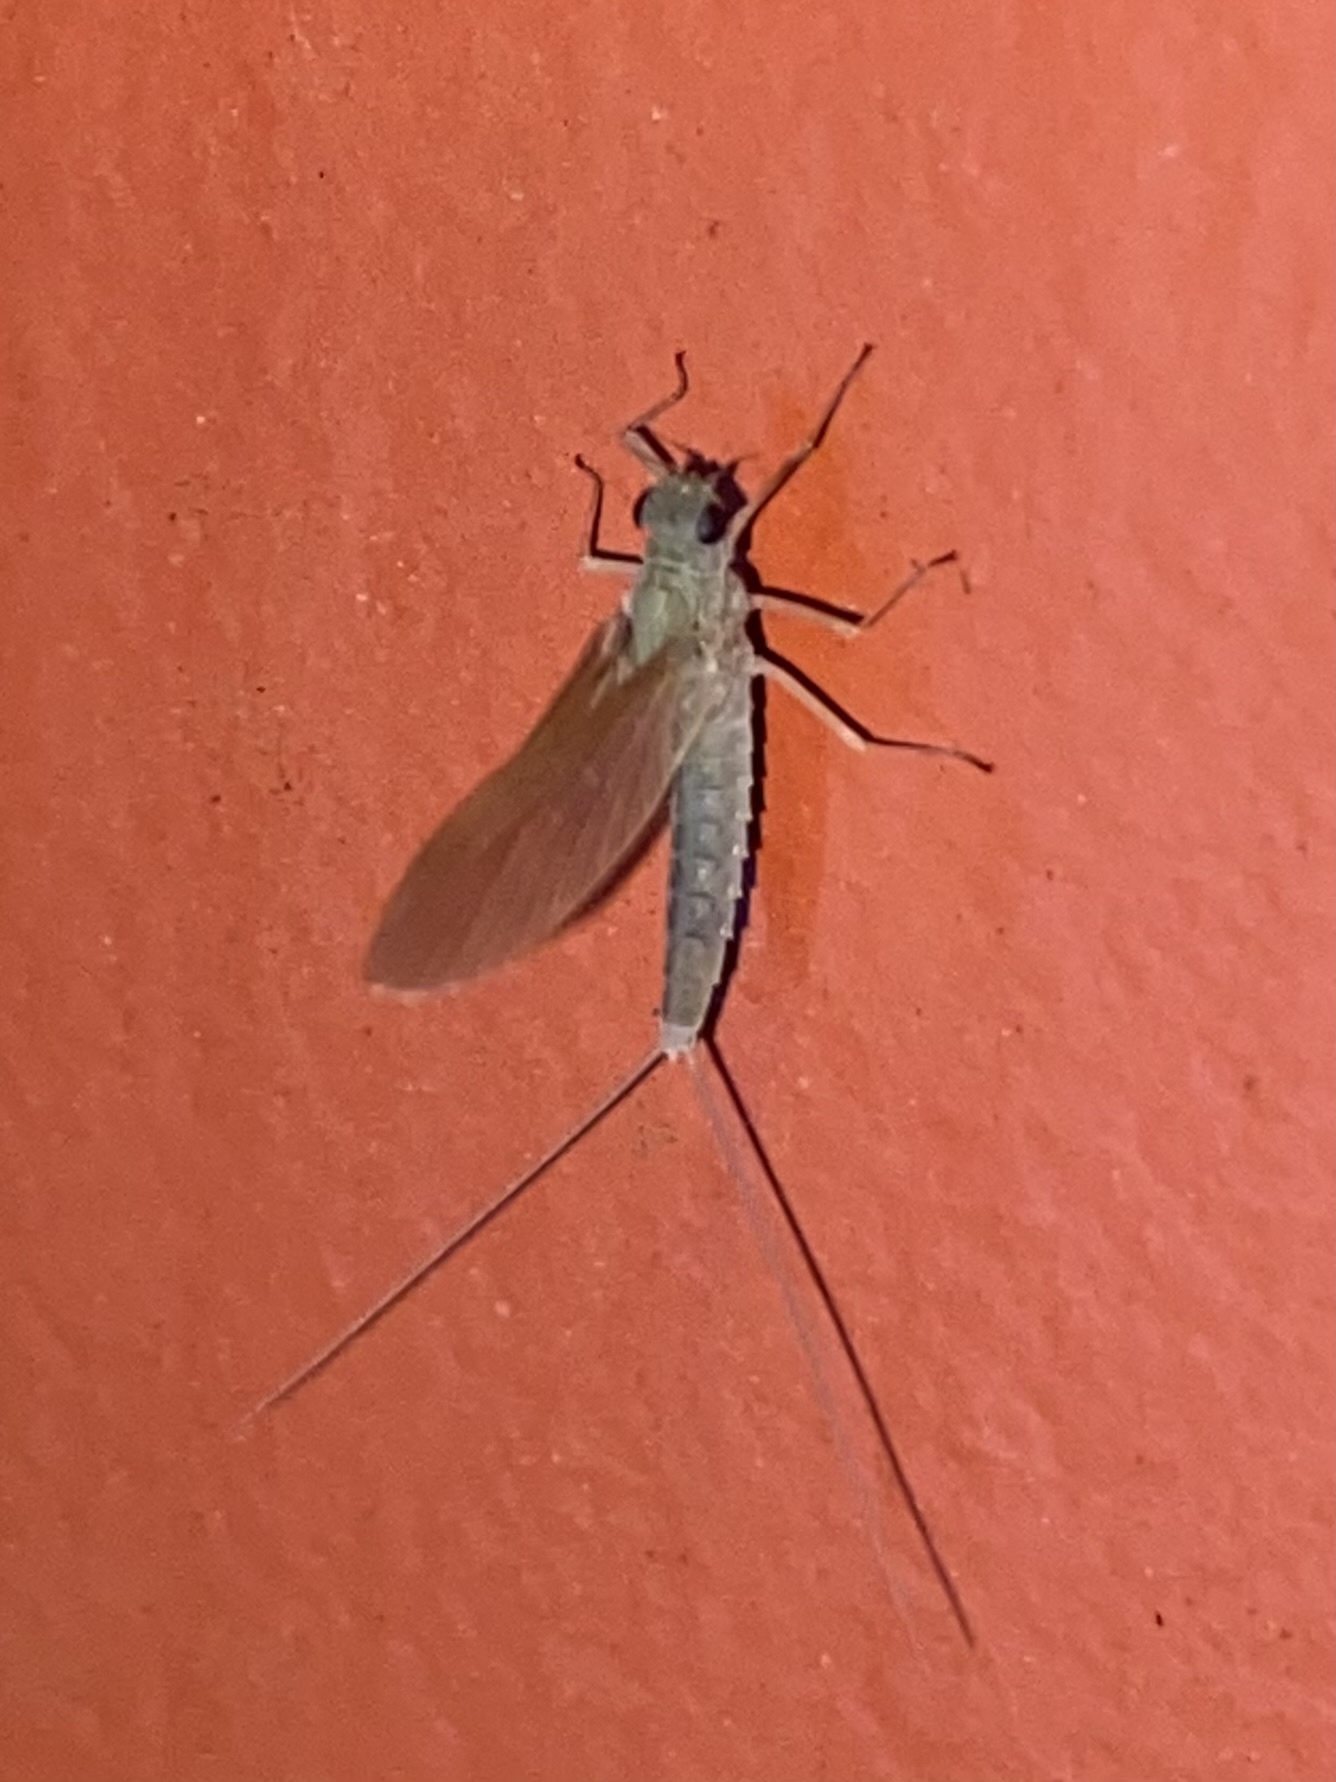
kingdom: Animalia
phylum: Arthropoda
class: Insecta
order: Ephemeroptera
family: Baetidae
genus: Callibaetis
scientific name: Callibaetis
